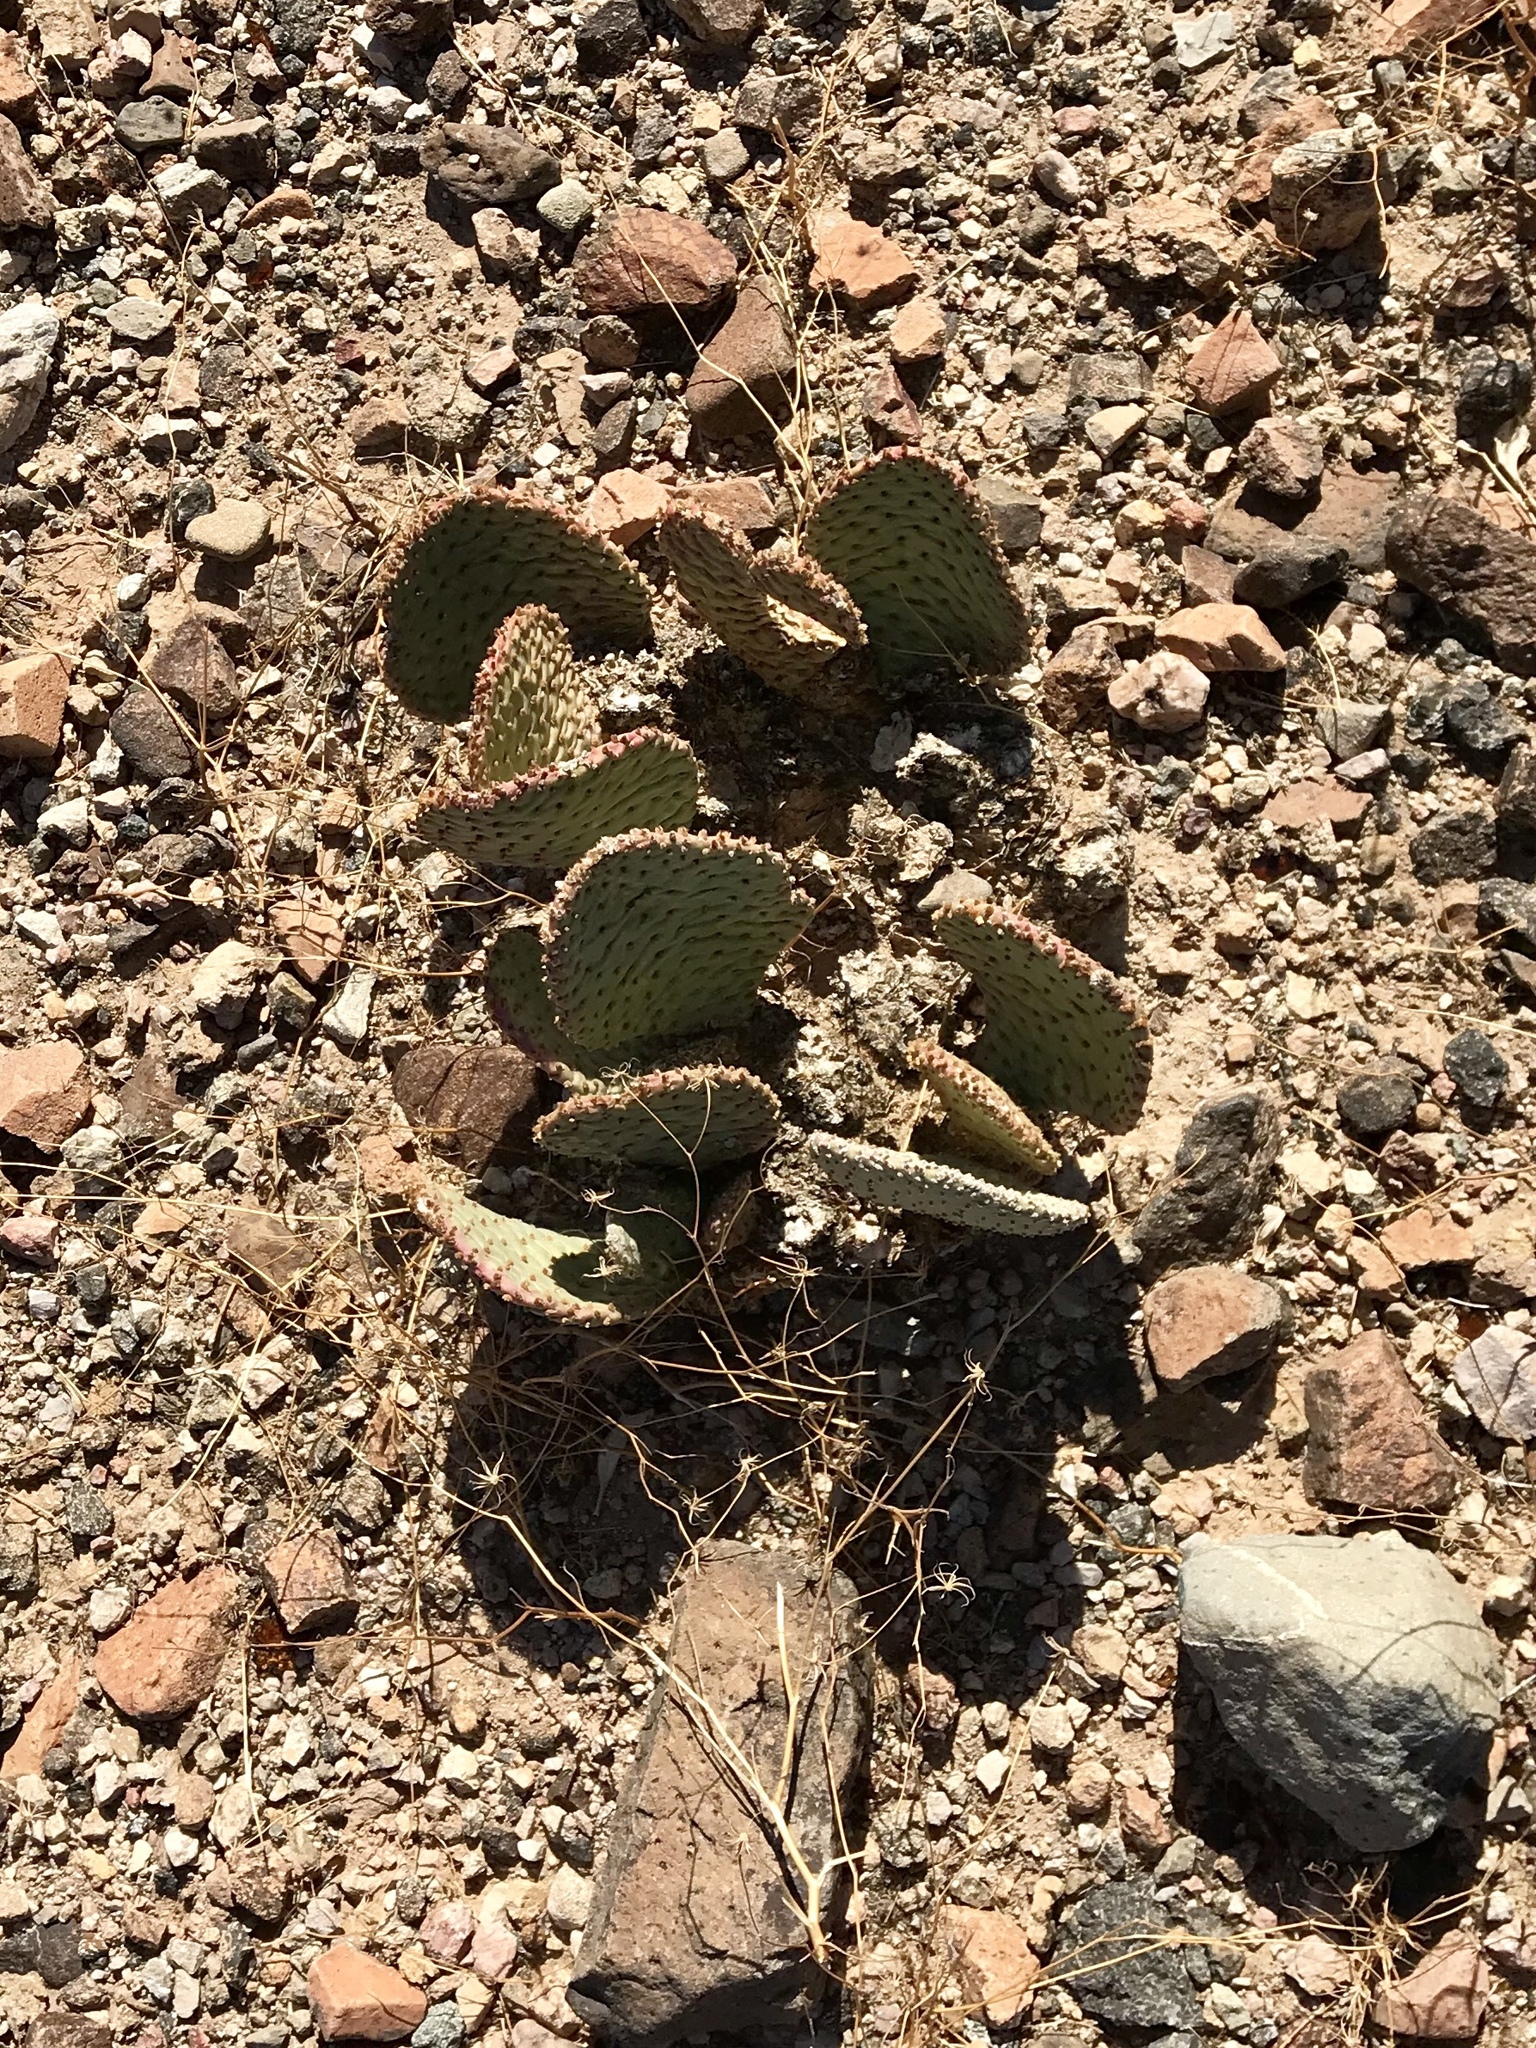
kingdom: Plantae
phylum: Tracheophyta
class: Magnoliopsida
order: Caryophyllales
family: Cactaceae
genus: Opuntia
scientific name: Opuntia basilaris
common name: Beavertail prickly-pear
